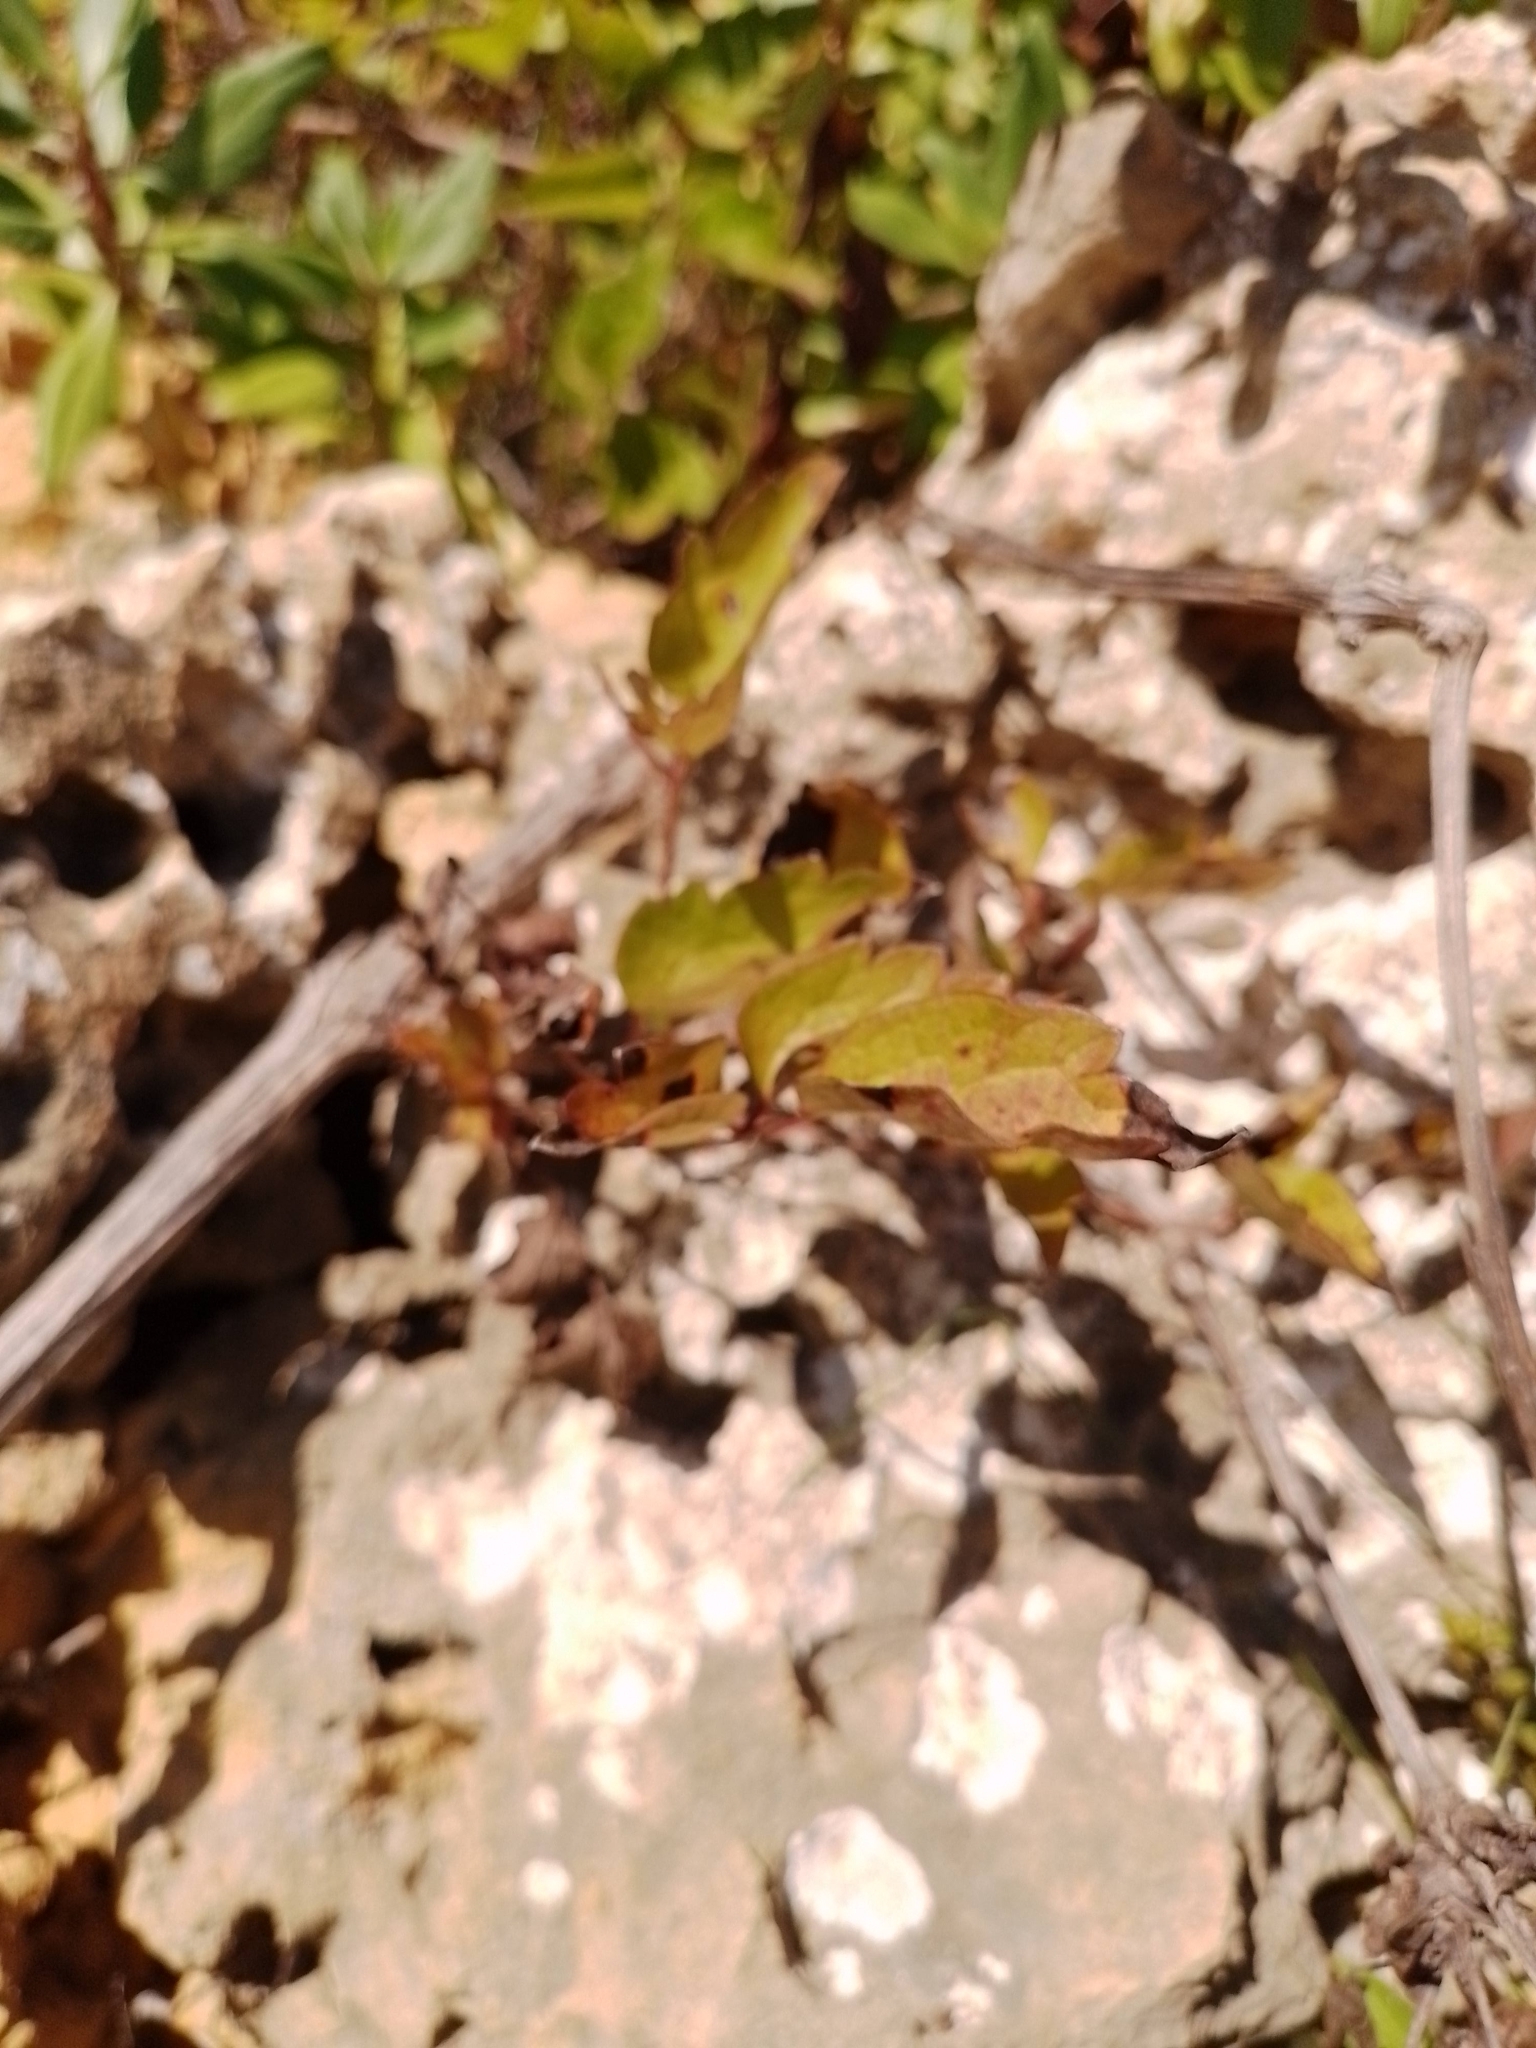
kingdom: Plantae
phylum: Tracheophyta
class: Magnoliopsida
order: Ranunculales
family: Ranunculaceae
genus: Clematis
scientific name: Clematis vitalba
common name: Evergreen clematis
